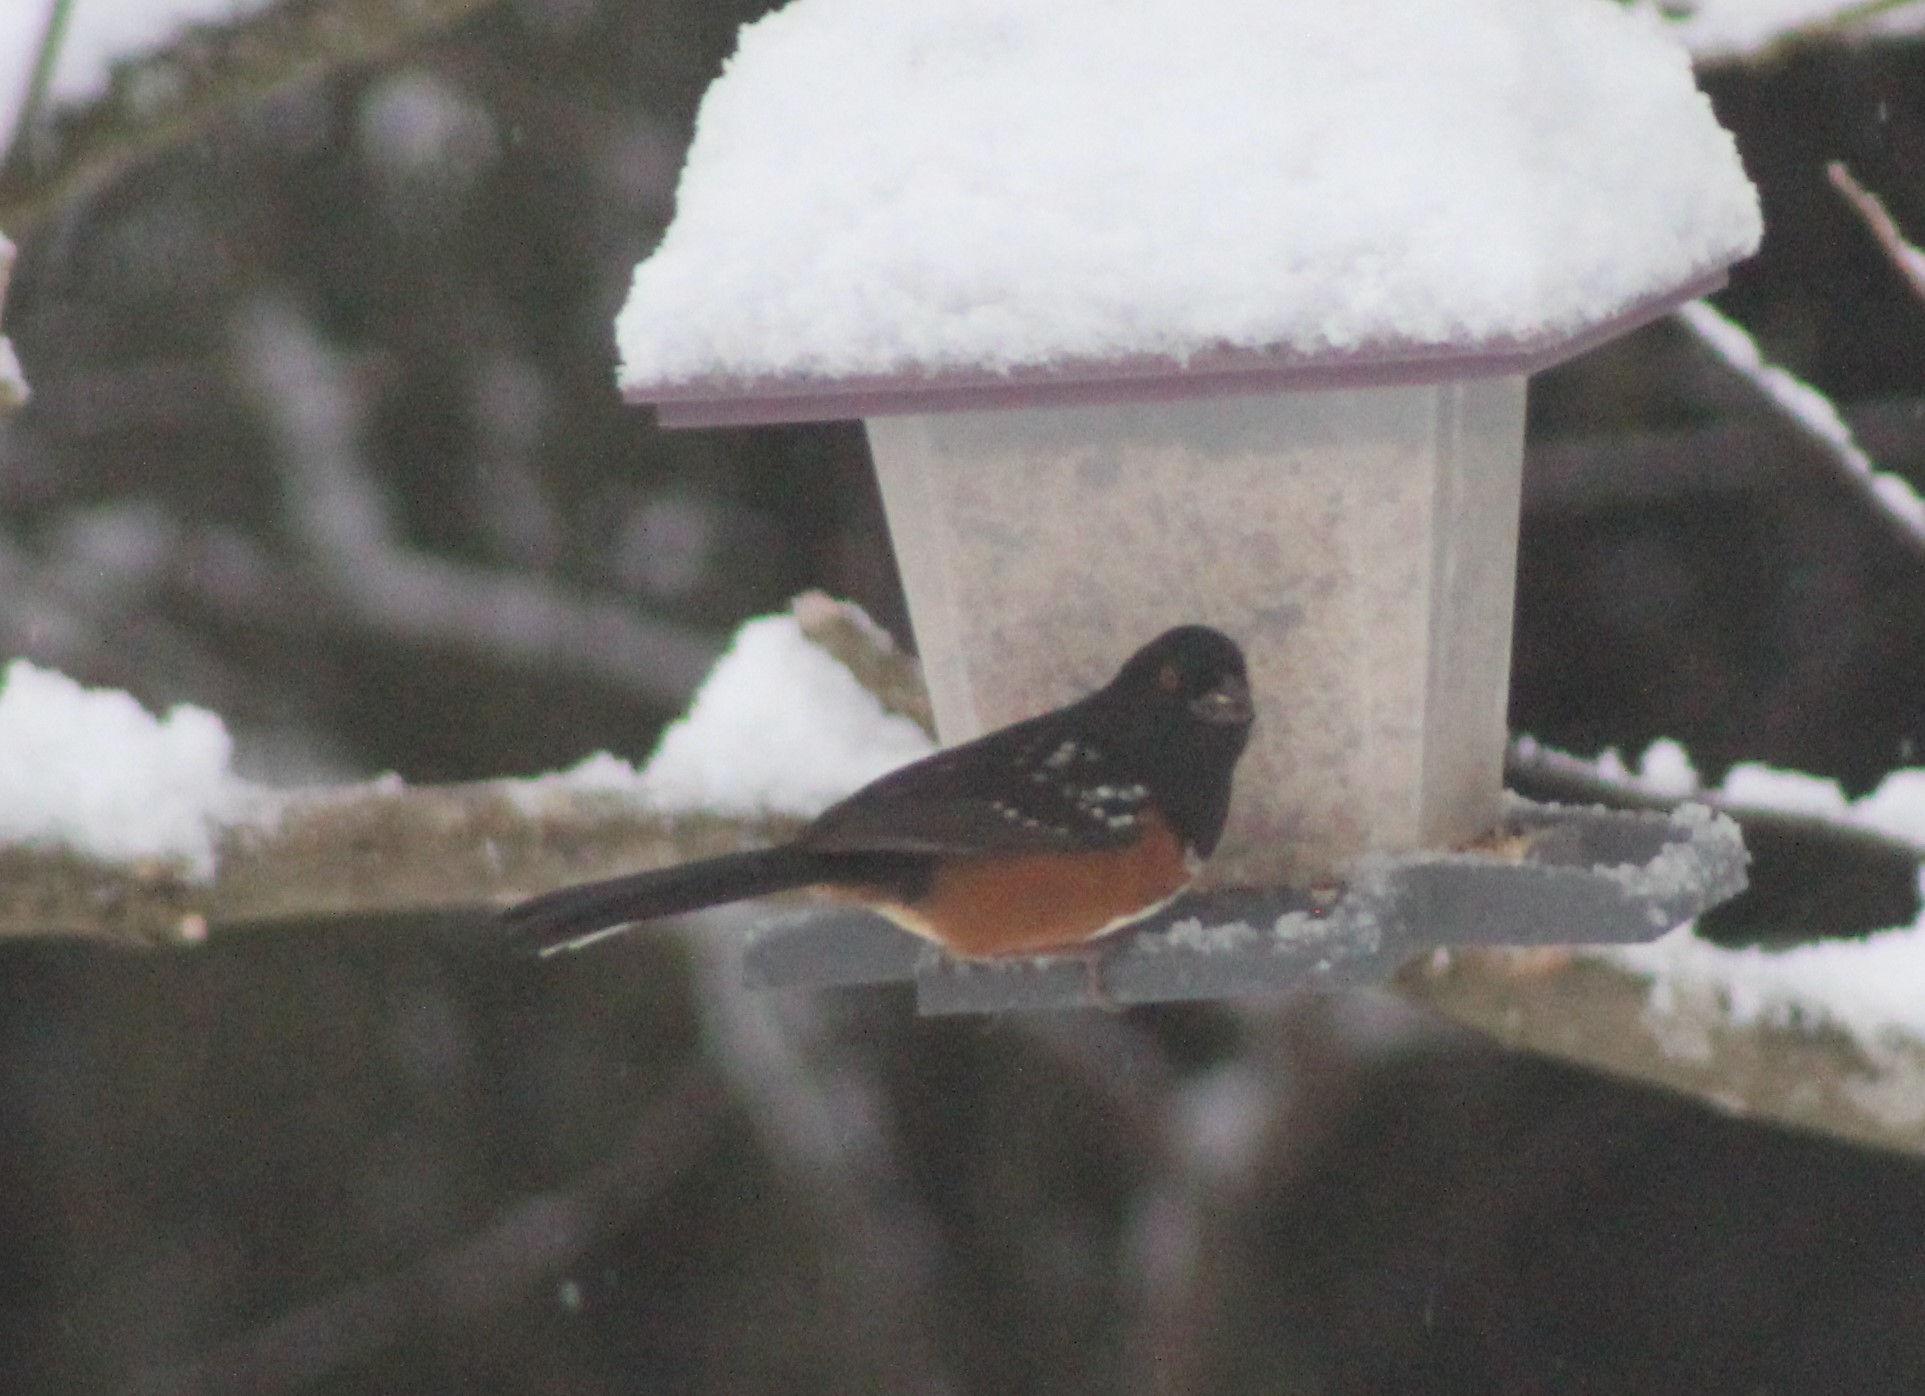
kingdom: Animalia
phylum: Chordata
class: Aves
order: Passeriformes
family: Passerellidae
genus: Pipilo
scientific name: Pipilo maculatus
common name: Spotted towhee
